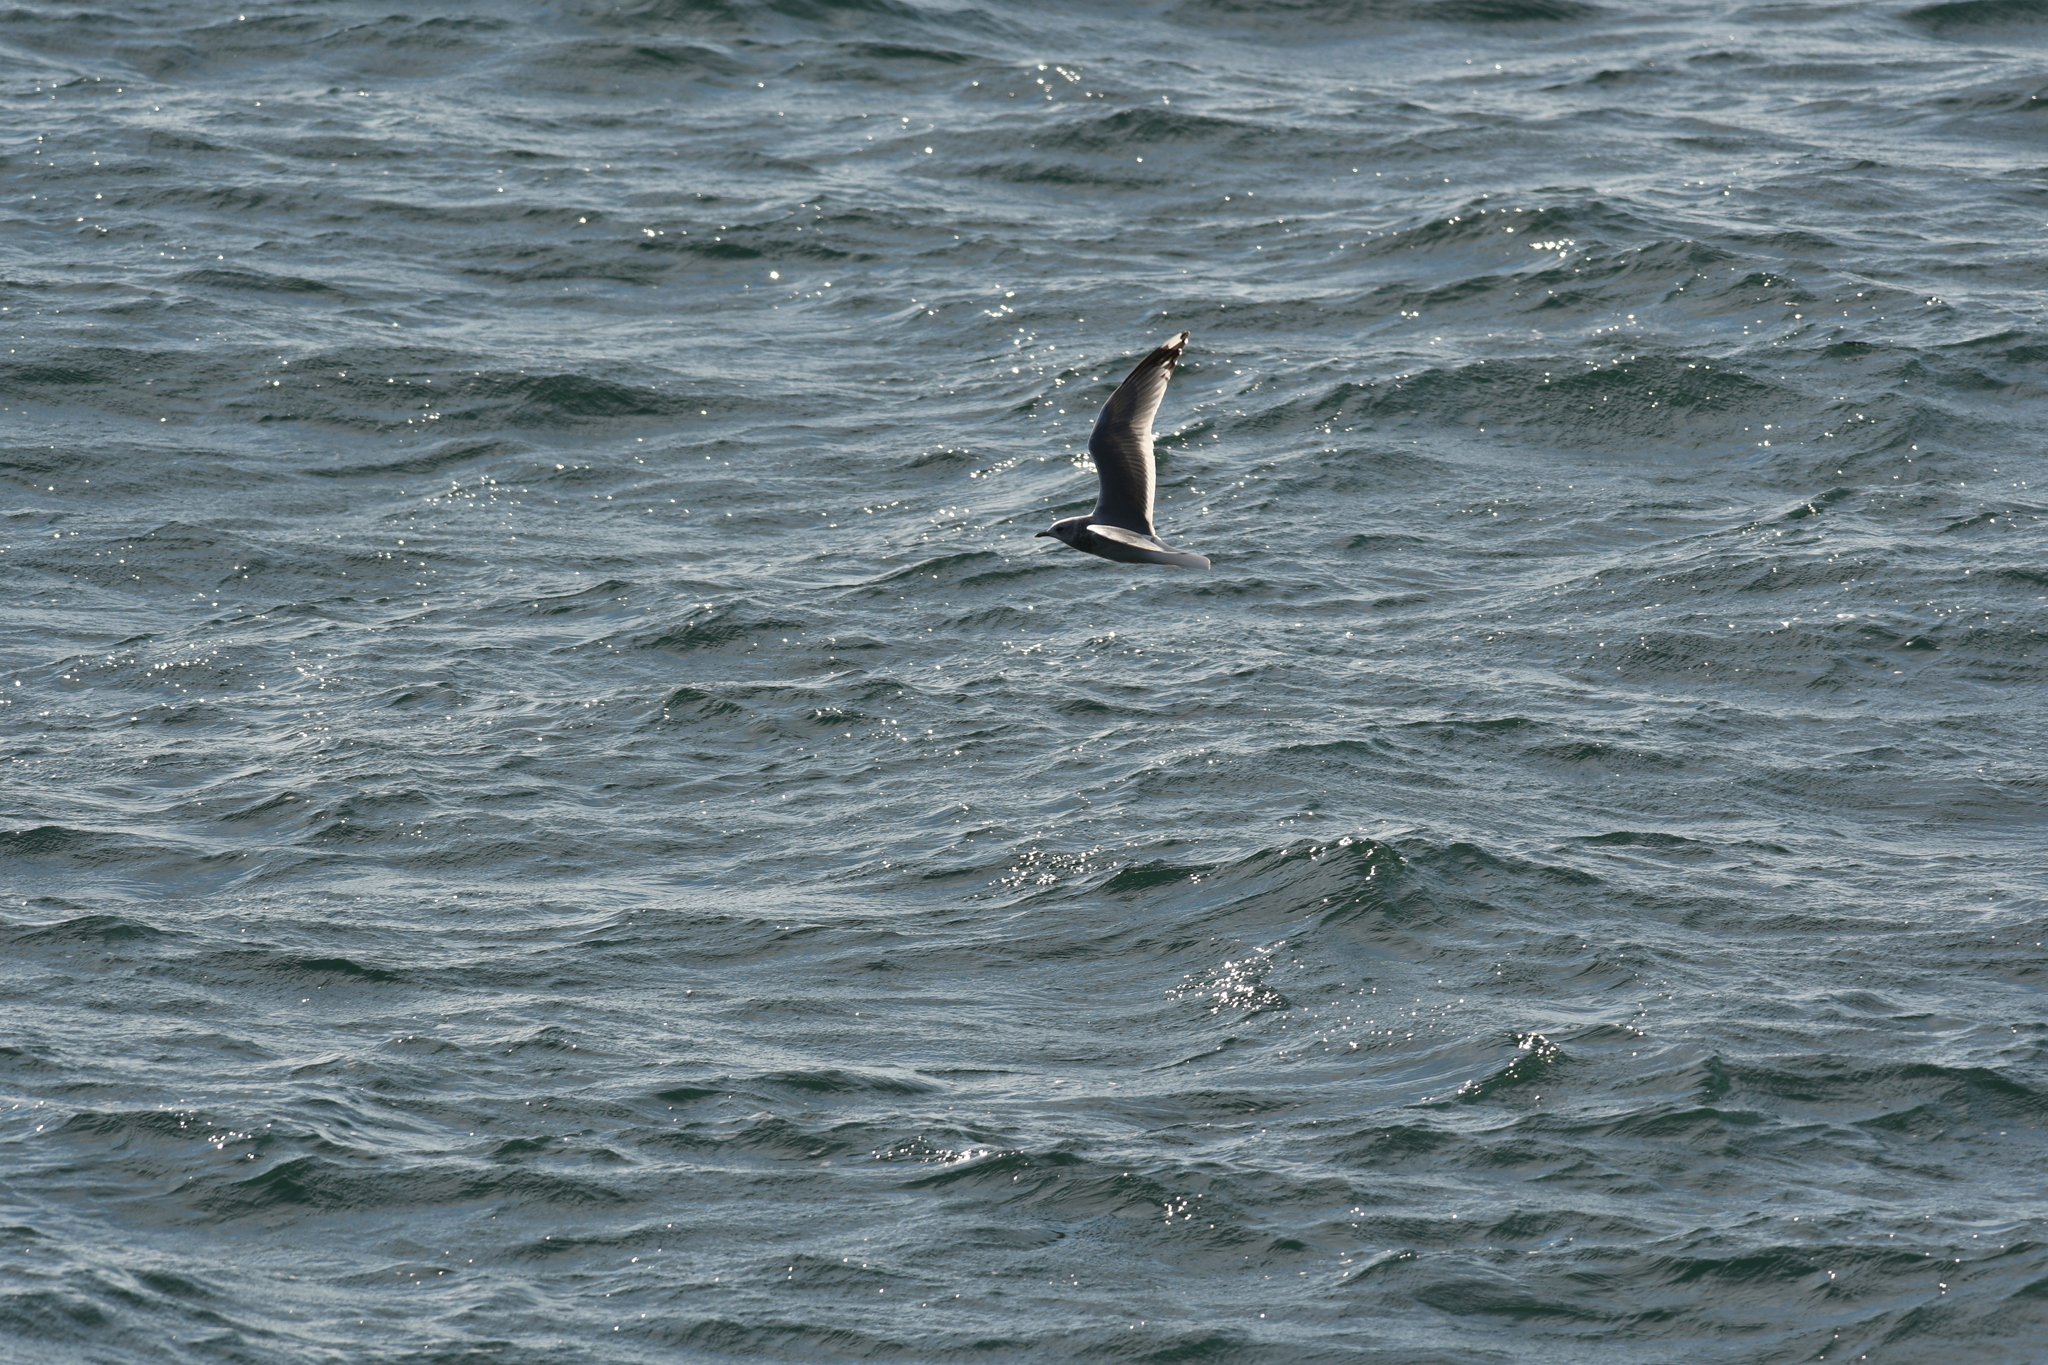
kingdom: Animalia
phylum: Chordata
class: Aves
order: Charadriiformes
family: Laridae
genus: Larus
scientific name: Larus brachyrhynchus
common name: Short-billed gull
